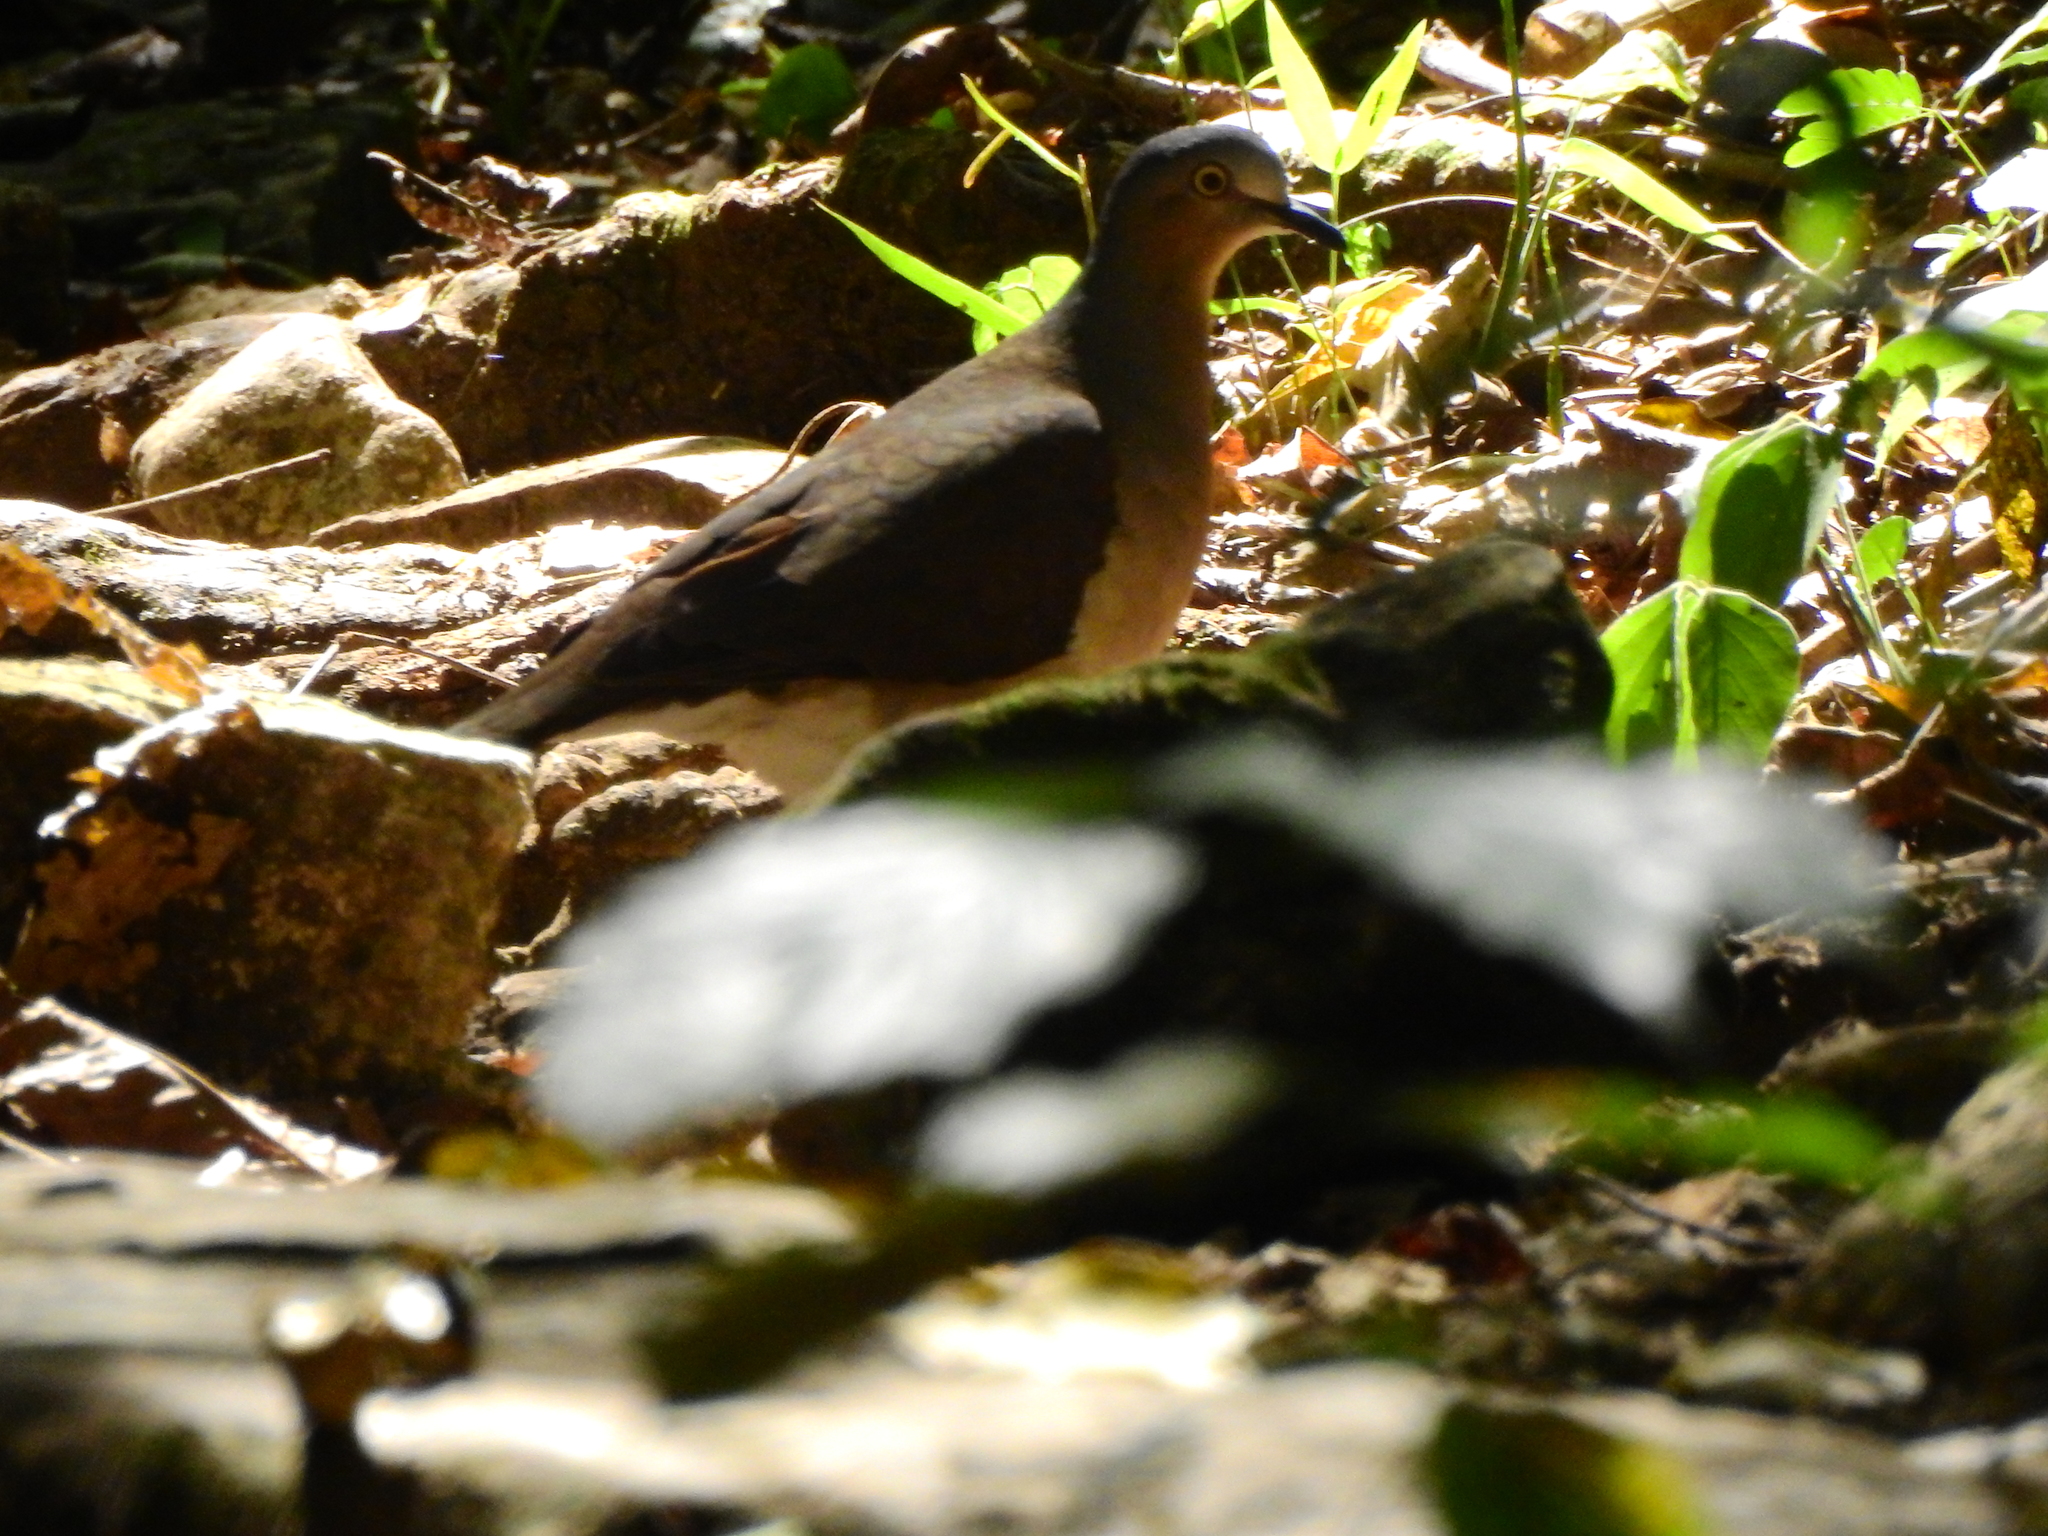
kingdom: Animalia
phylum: Chordata
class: Aves
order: Columbiformes
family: Columbidae
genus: Leptotila
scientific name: Leptotila plumbeiceps
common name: Grey-headed dove
